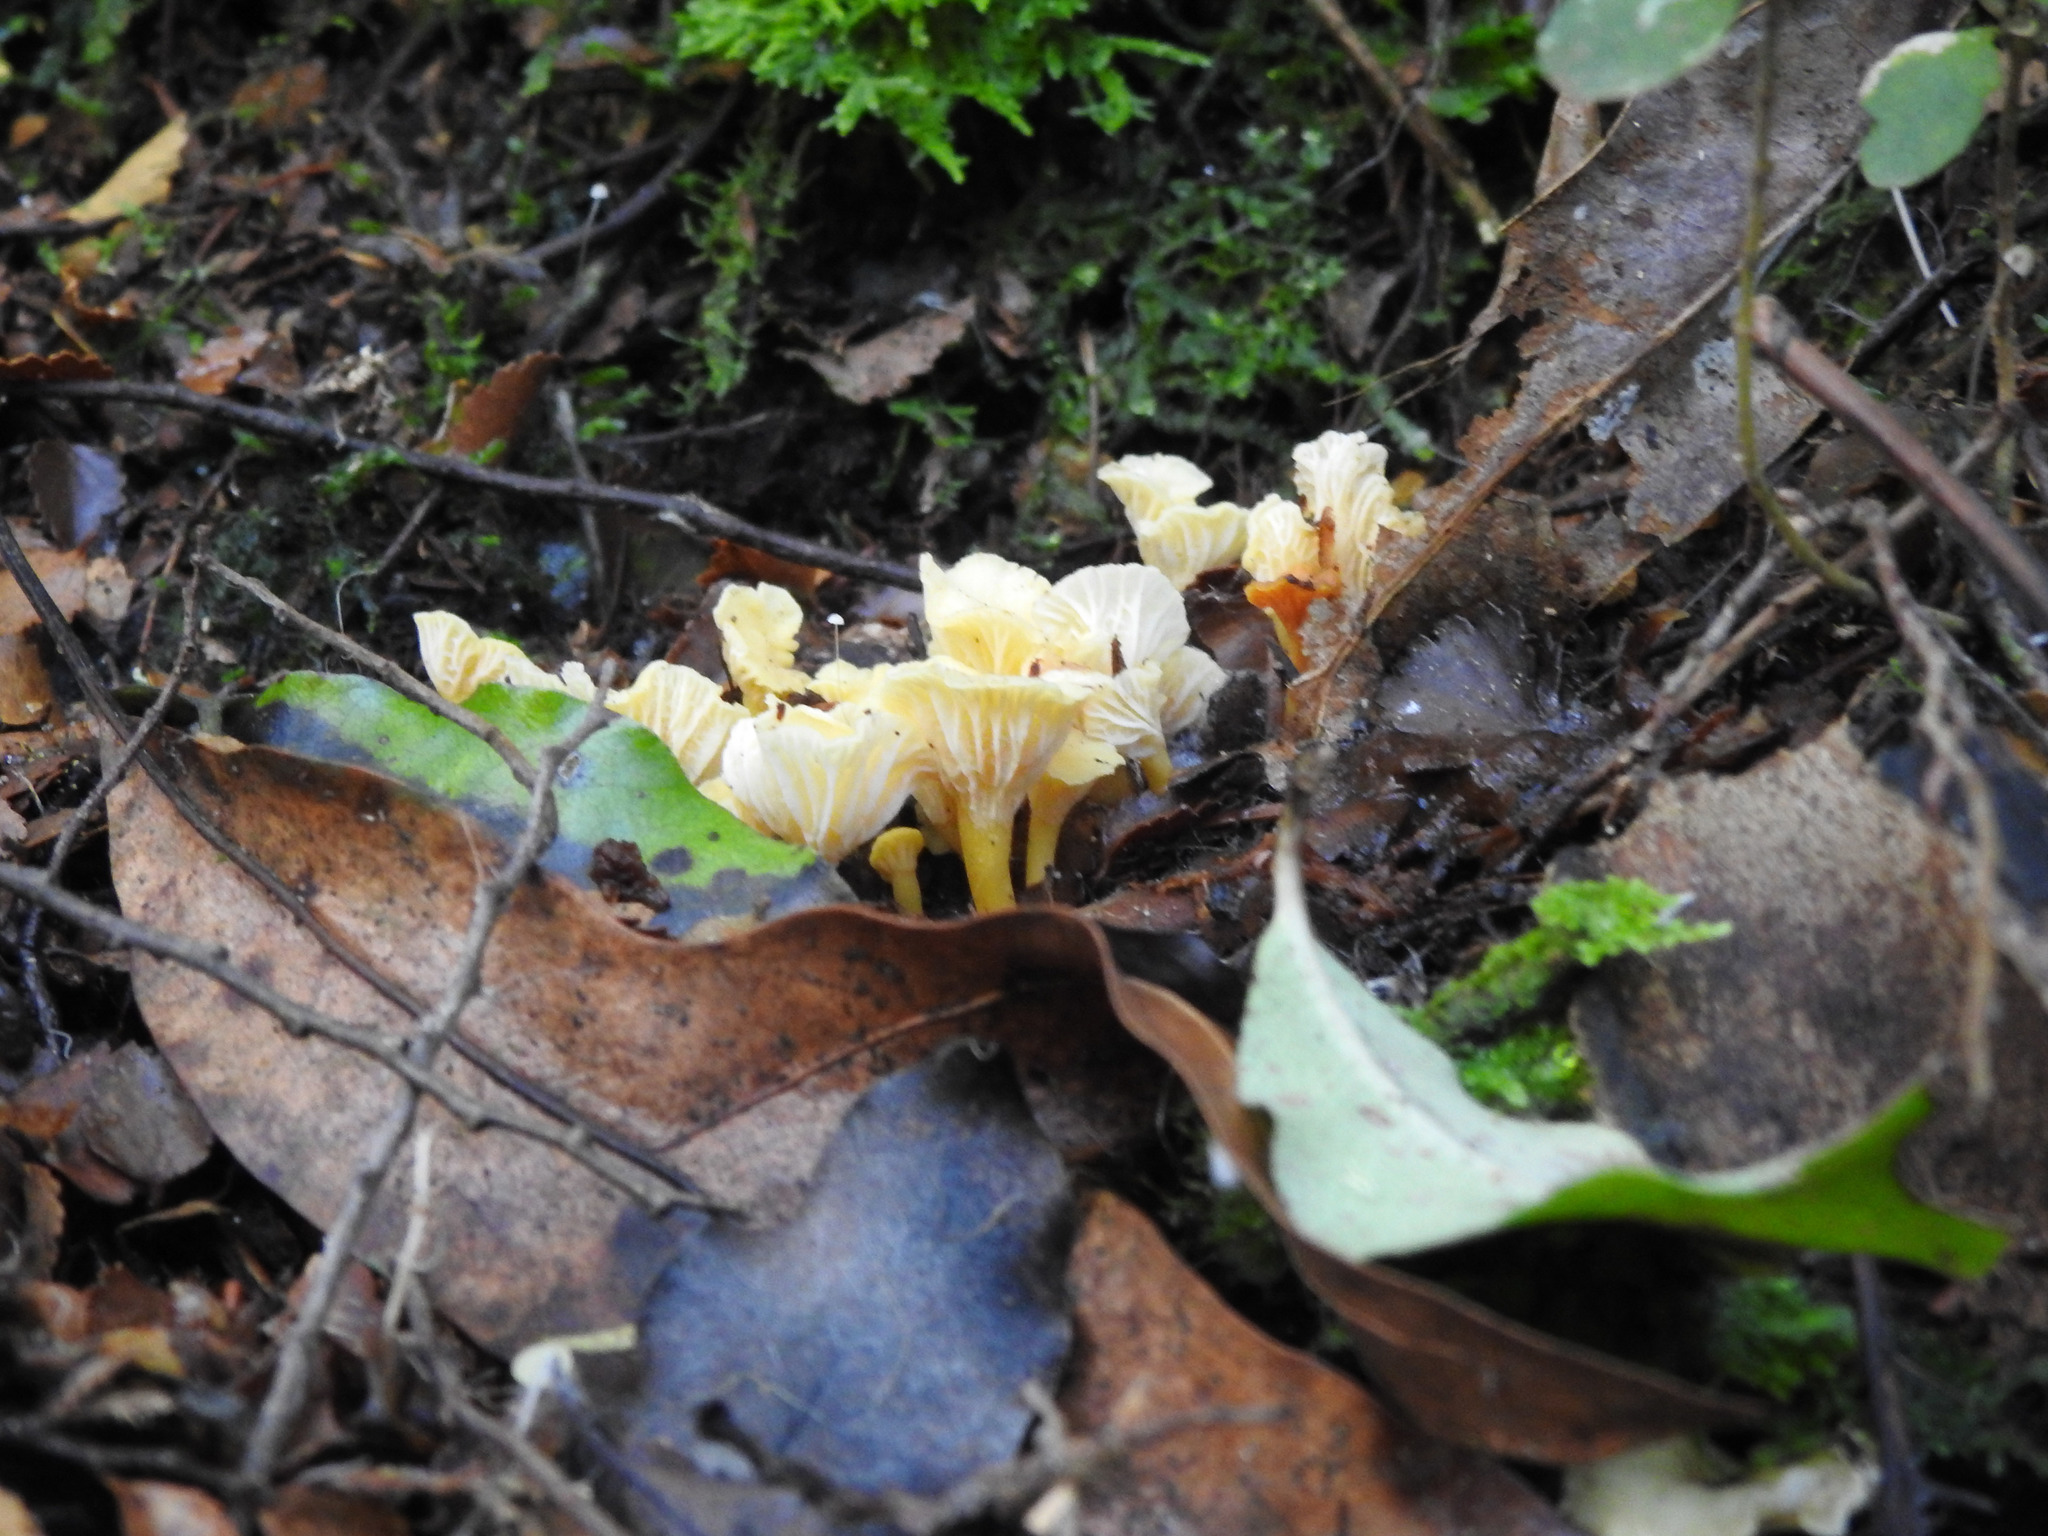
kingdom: Fungi
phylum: Basidiomycota
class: Agaricomycetes
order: Cantharellales
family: Hydnaceae
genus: Cantharellus
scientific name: Cantharellus wellingtonensis
